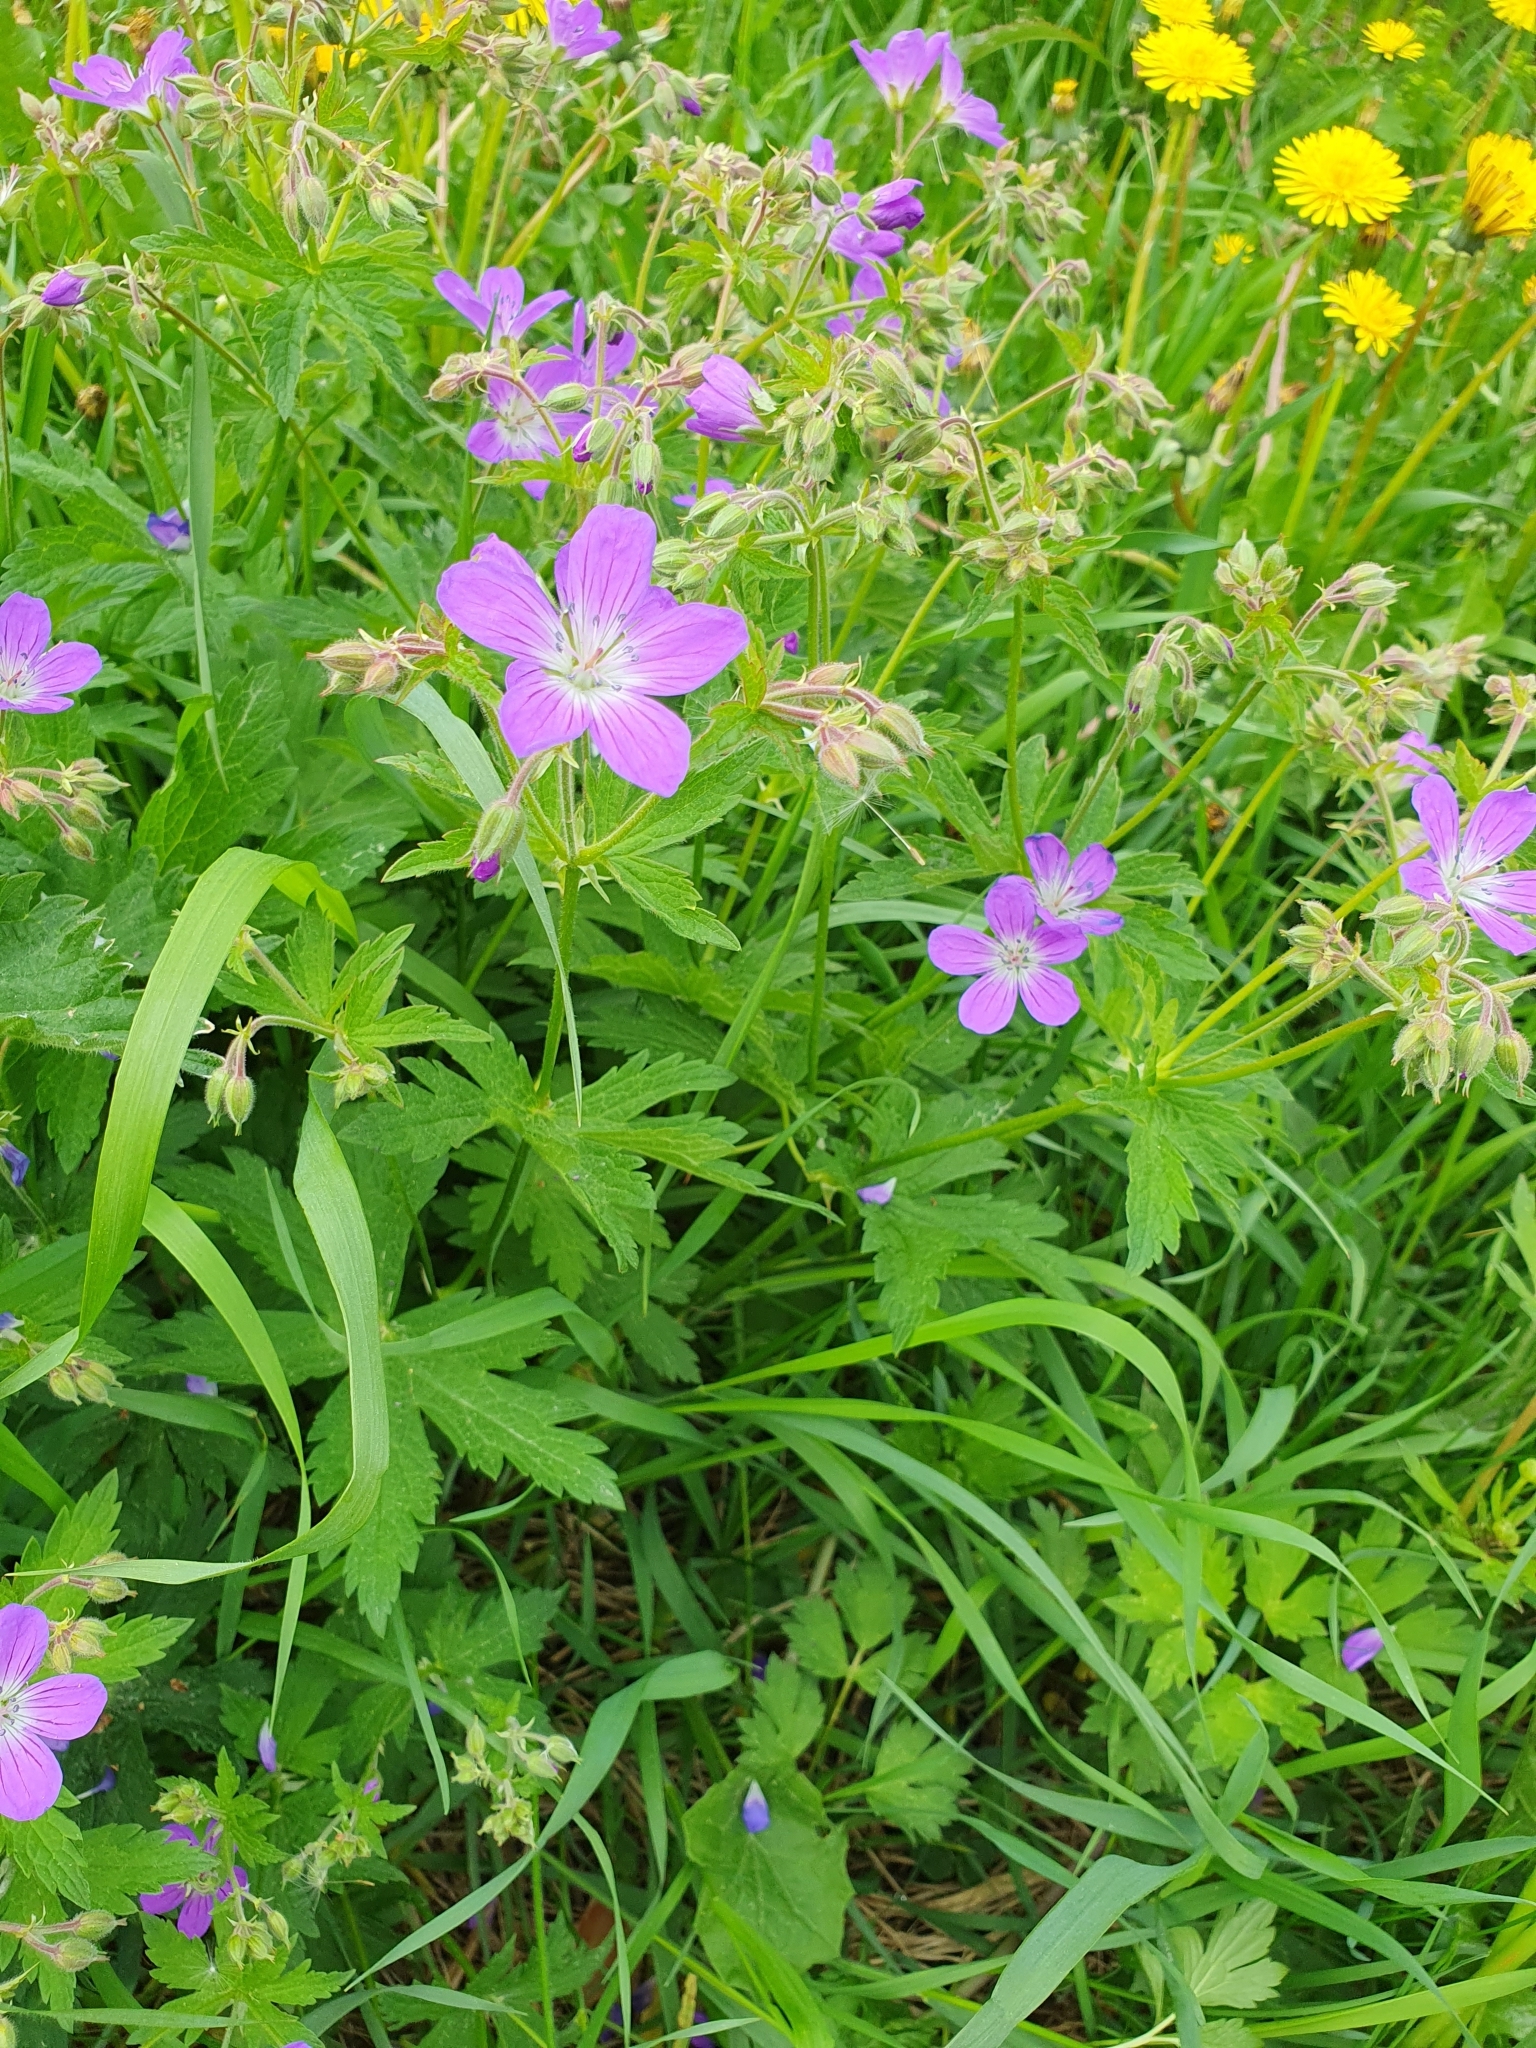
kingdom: Plantae
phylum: Tracheophyta
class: Magnoliopsida
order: Geraniales
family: Geraniaceae
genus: Geranium
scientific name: Geranium sylvaticum
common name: Wood crane's-bill
